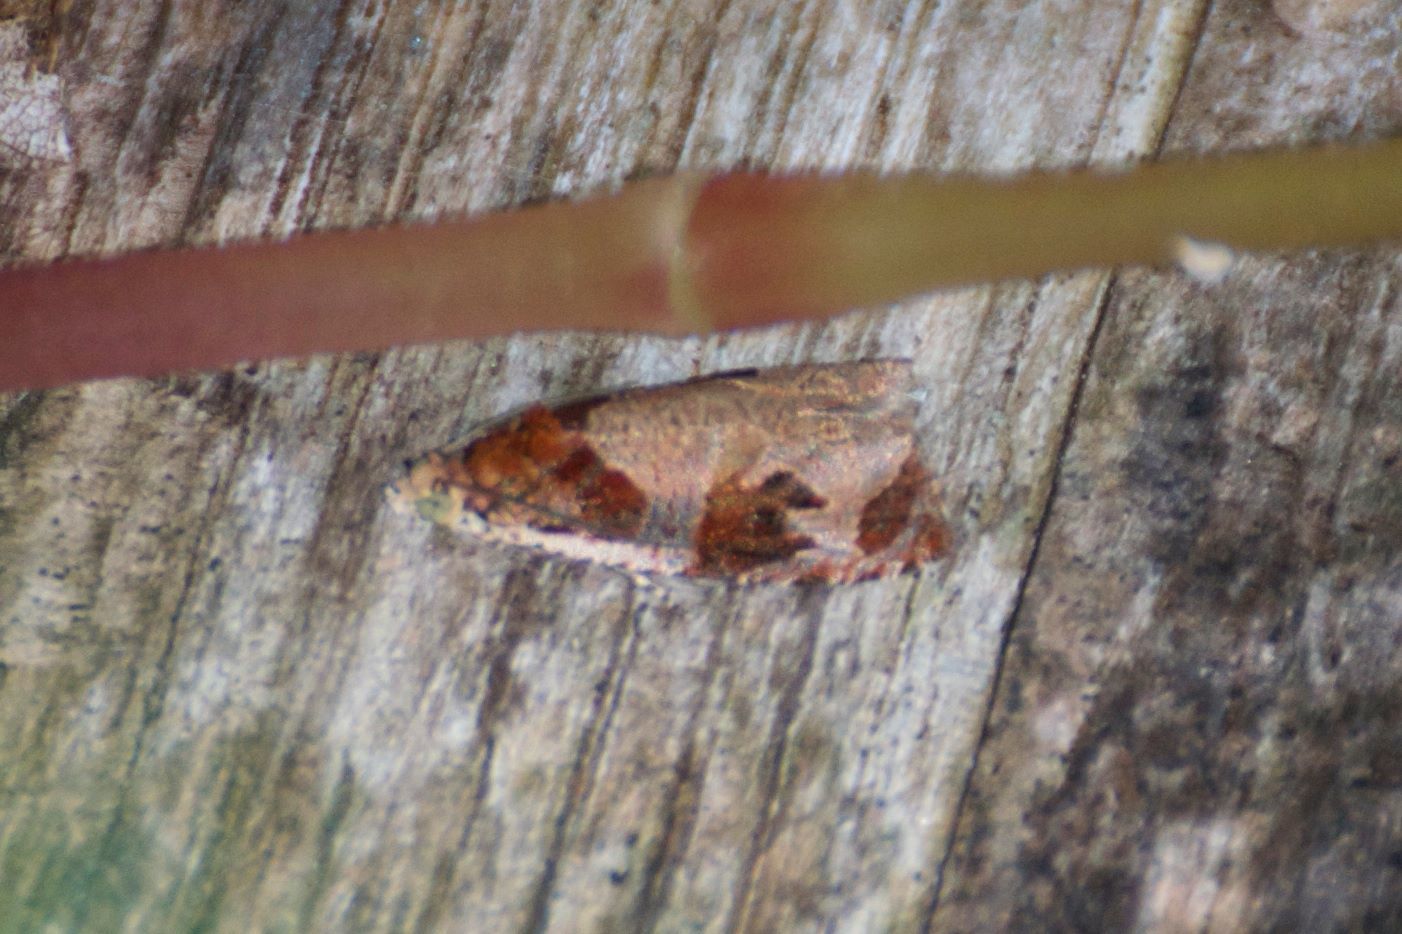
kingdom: Animalia
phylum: Arthropoda
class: Insecta
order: Lepidoptera
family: Tortricidae
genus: Olethreutes
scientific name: Olethreutes footiana
